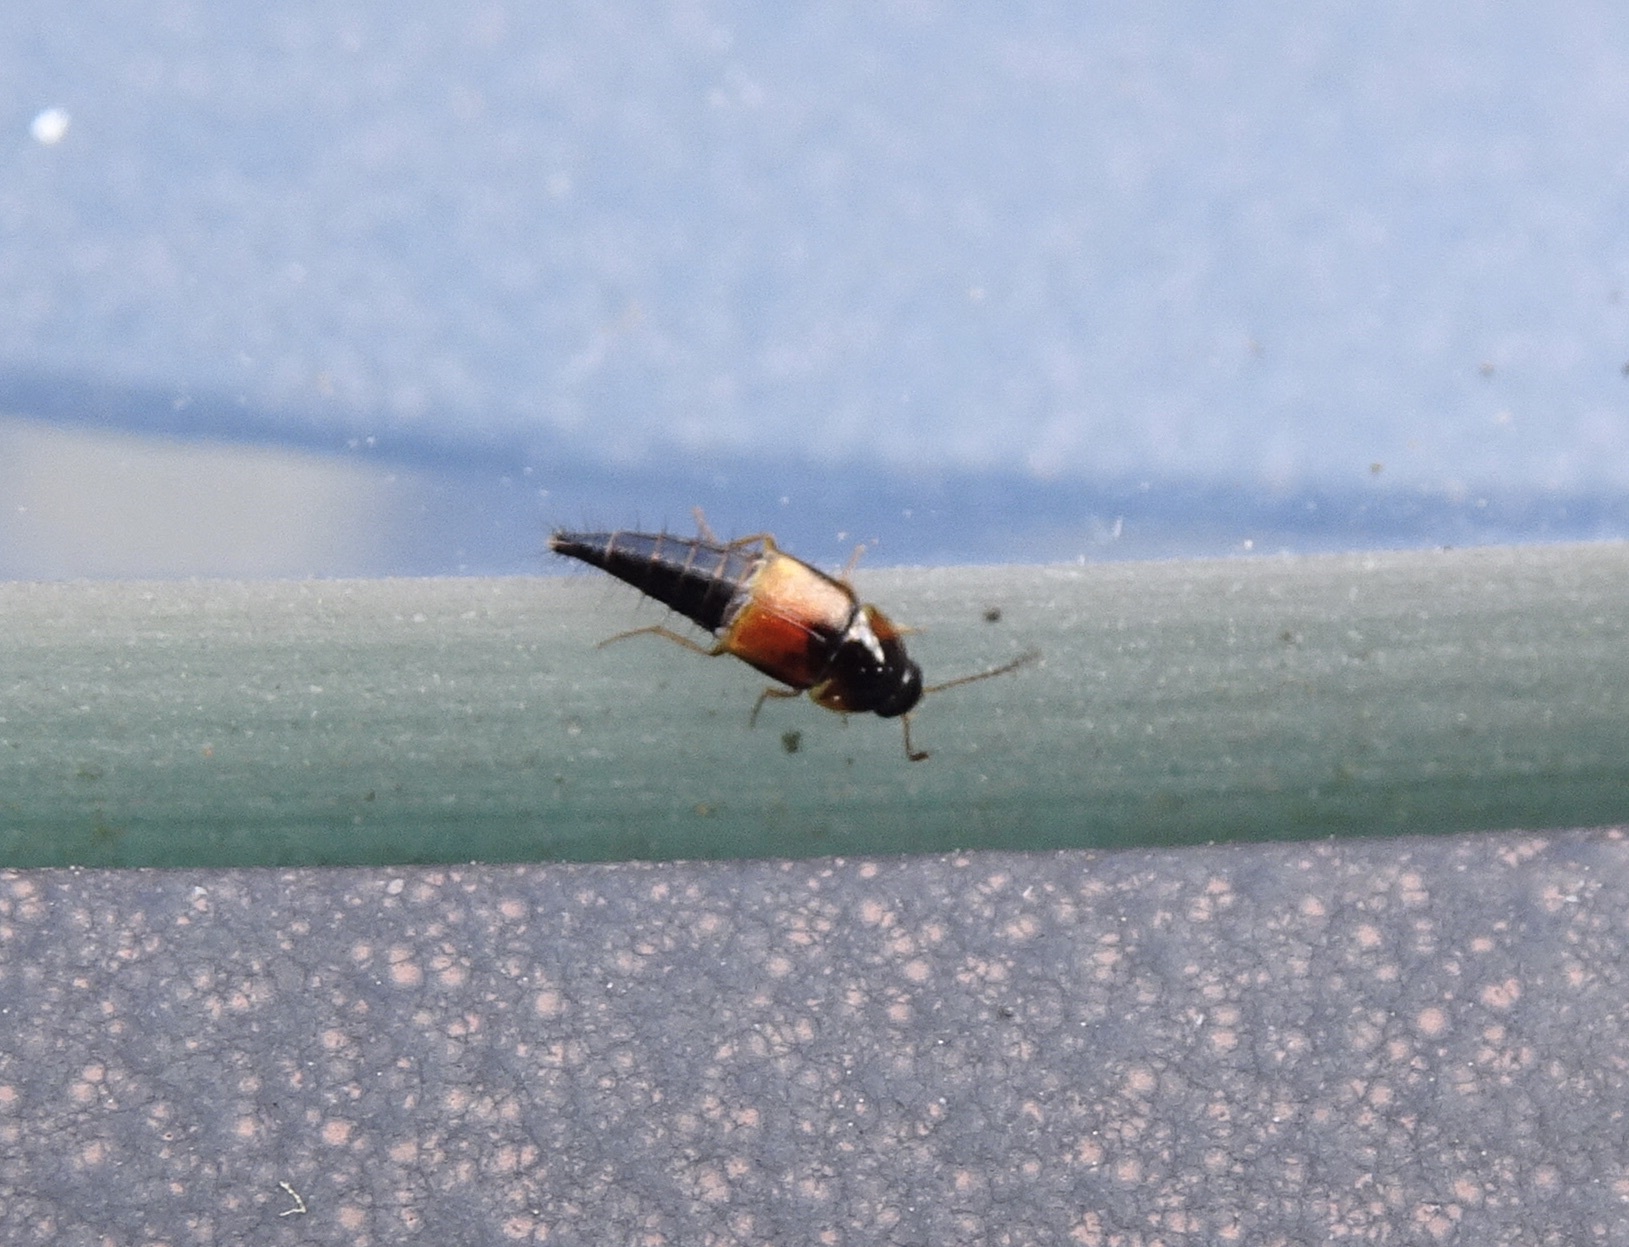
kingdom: Animalia
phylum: Arthropoda
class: Insecta
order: Coleoptera
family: Staphylinidae
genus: Tachyporus
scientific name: Tachyporus hypnorum
